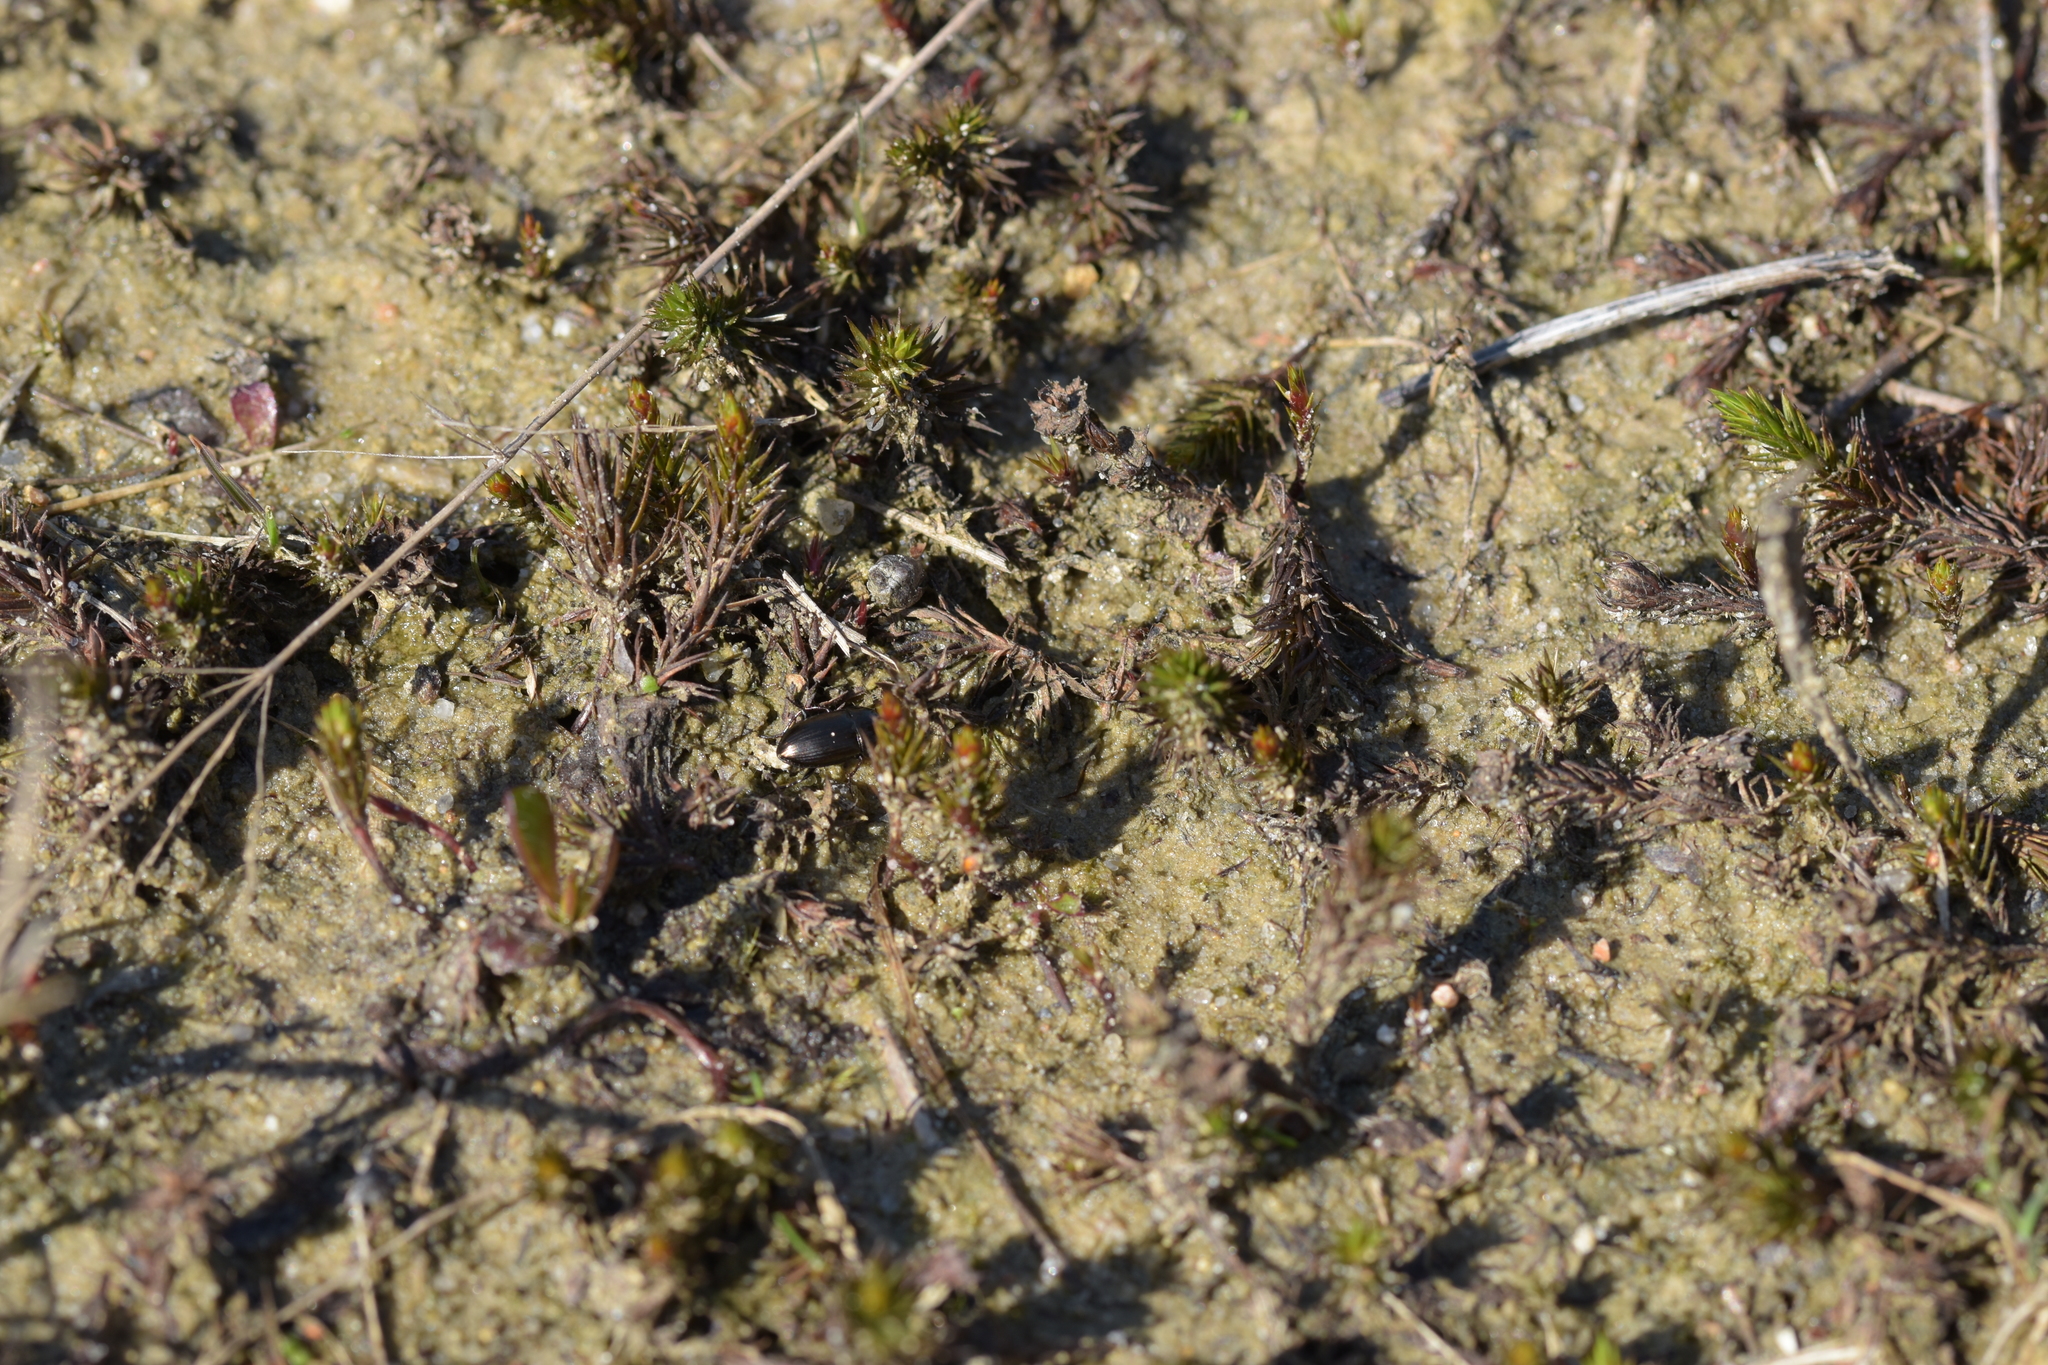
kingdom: Animalia
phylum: Arthropoda
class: Insecta
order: Coleoptera
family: Carabidae
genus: Amara
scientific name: Amara
